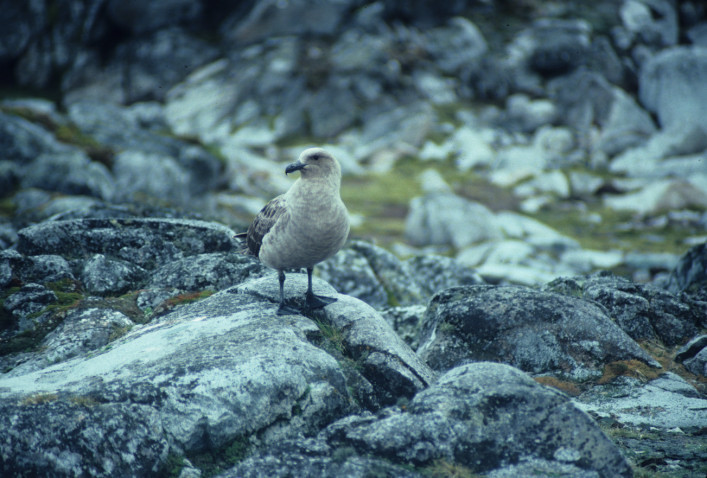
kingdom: Animalia
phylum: Chordata
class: Aves
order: Charadriiformes
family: Stercorariidae
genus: Stercorarius
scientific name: Stercorarius maccormicki
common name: South polar skua
